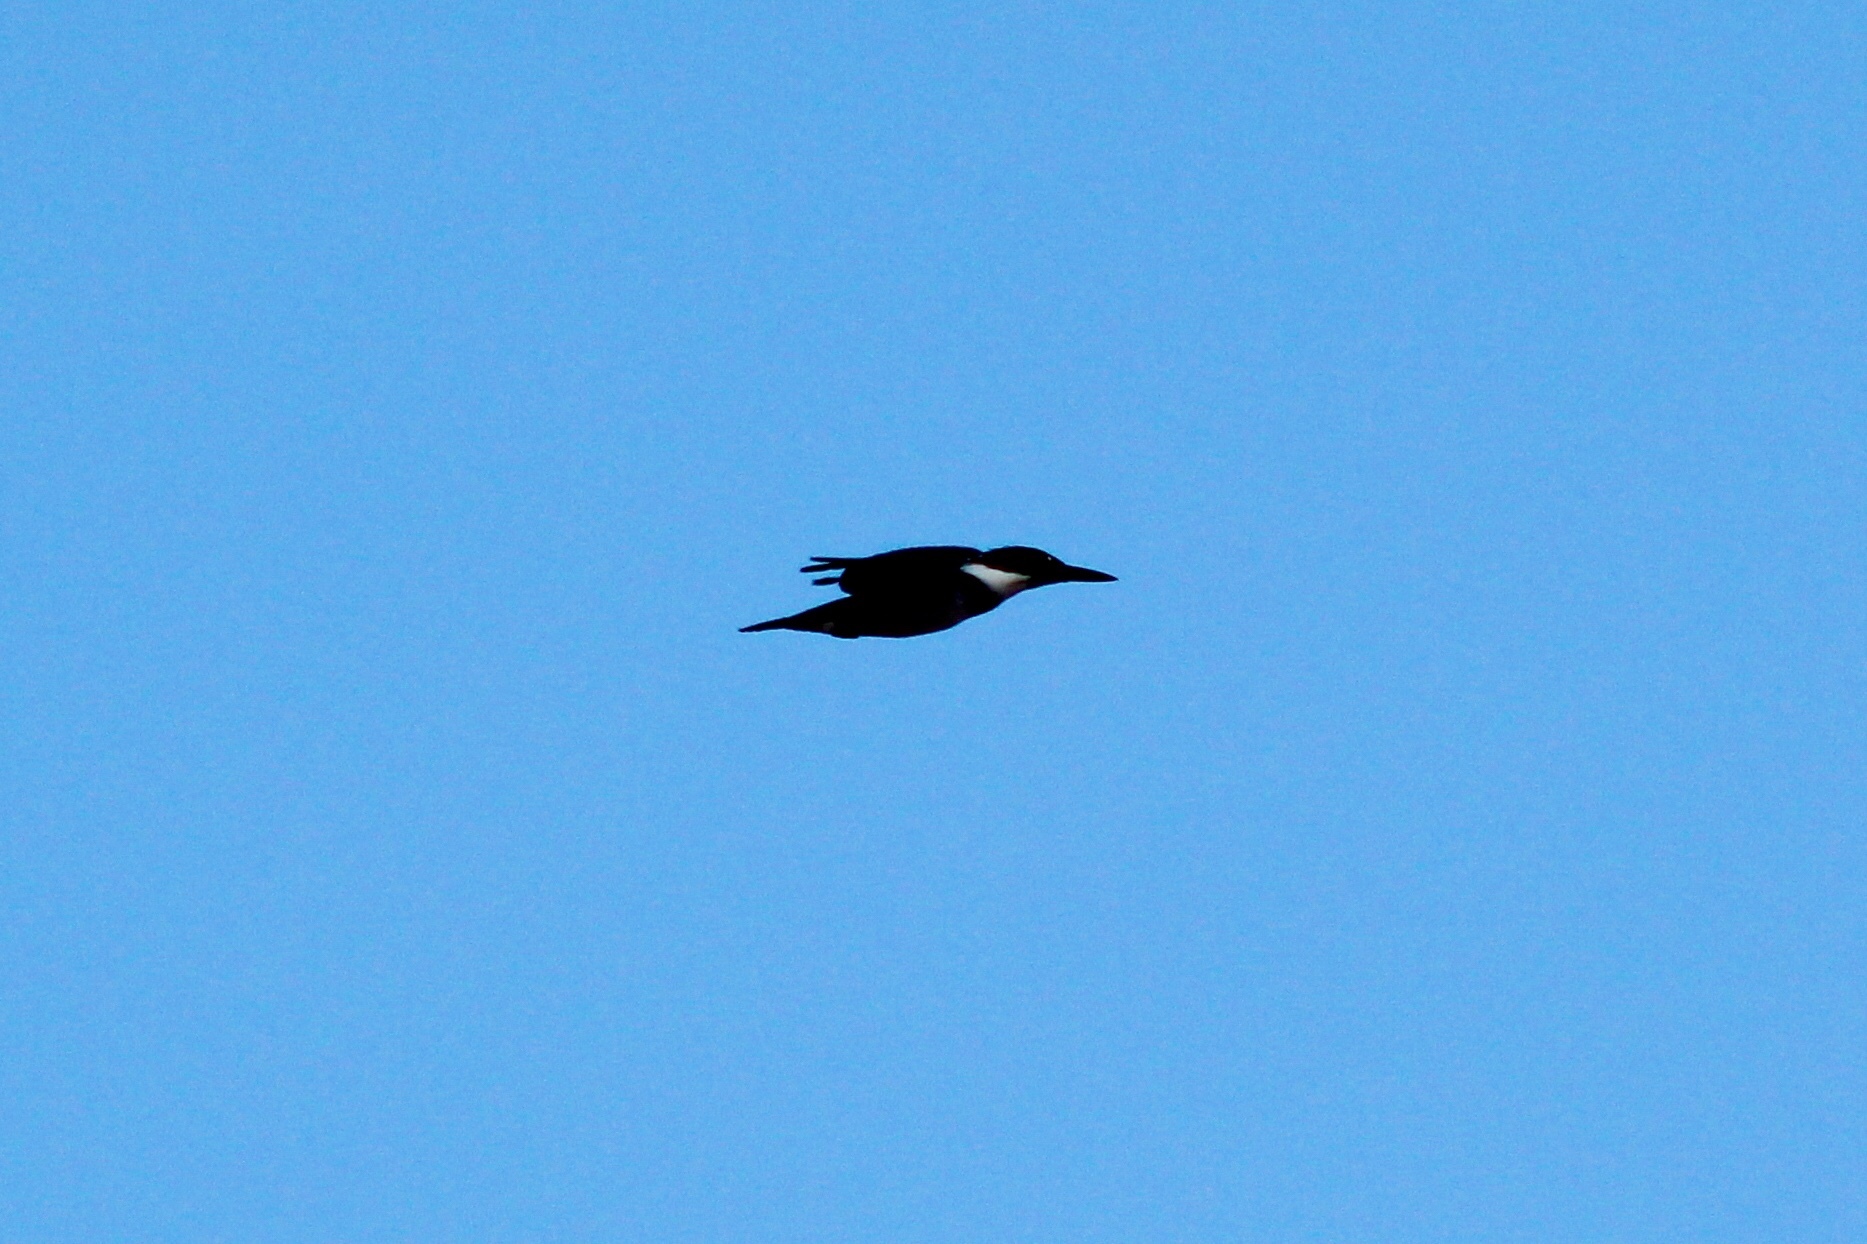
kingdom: Animalia
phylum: Chordata
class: Aves
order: Coraciiformes
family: Alcedinidae
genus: Megaceryle
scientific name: Megaceryle alcyon
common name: Belted kingfisher
